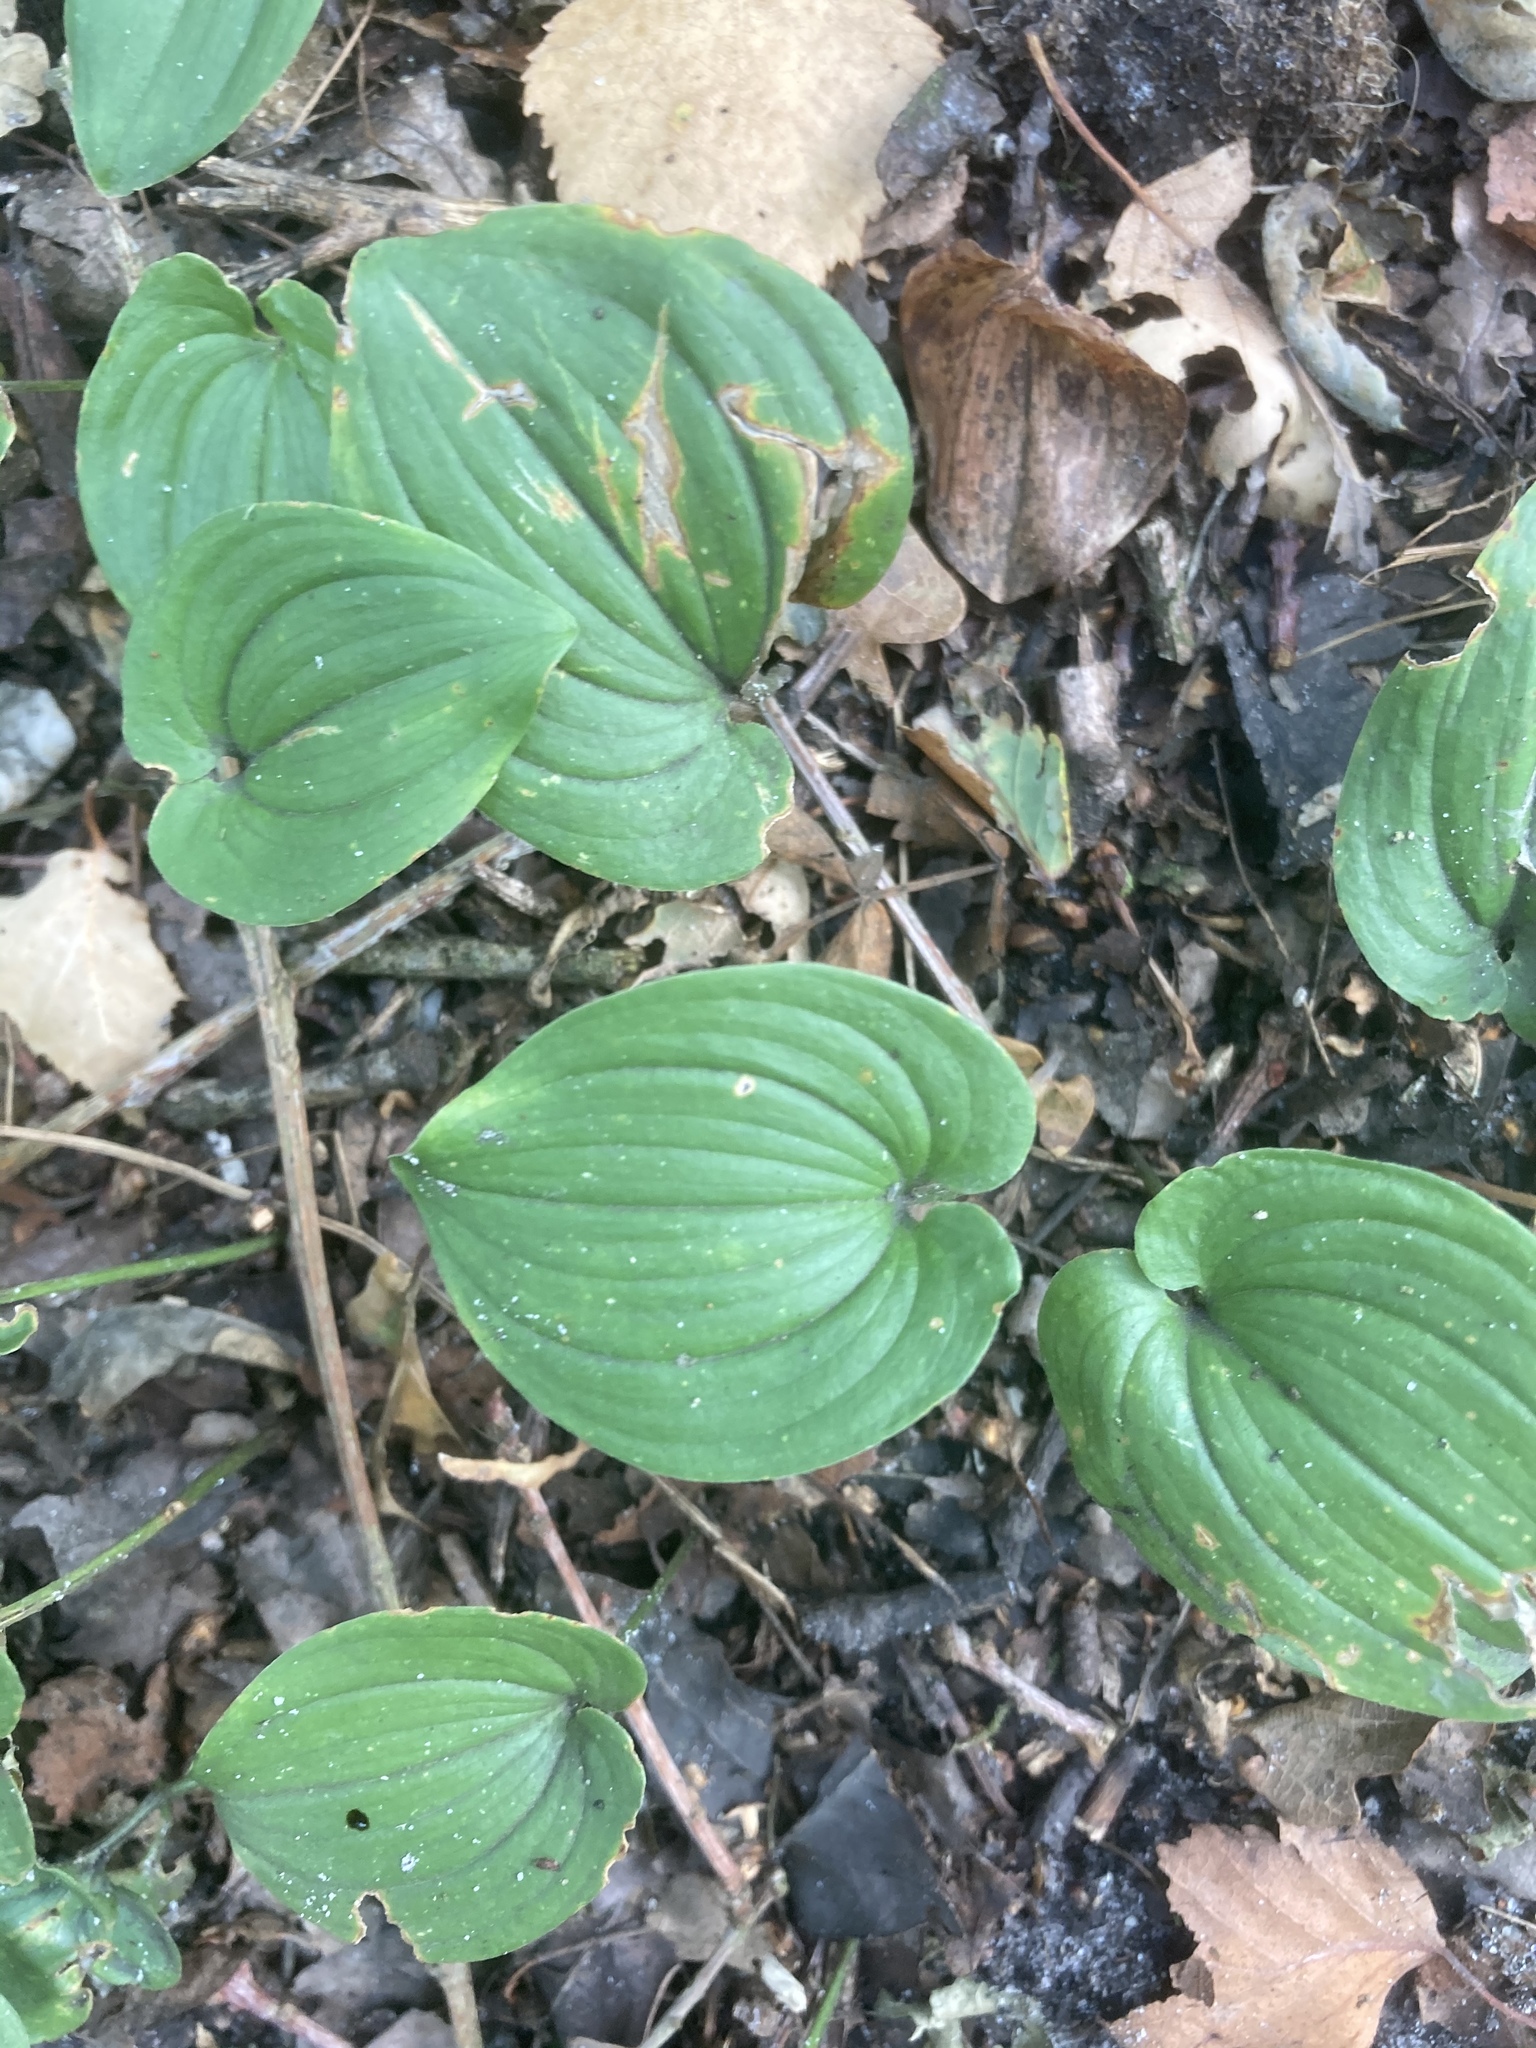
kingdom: Plantae
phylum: Tracheophyta
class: Liliopsida
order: Asparagales
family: Asparagaceae
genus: Maianthemum
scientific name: Maianthemum bifolium
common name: May lily
